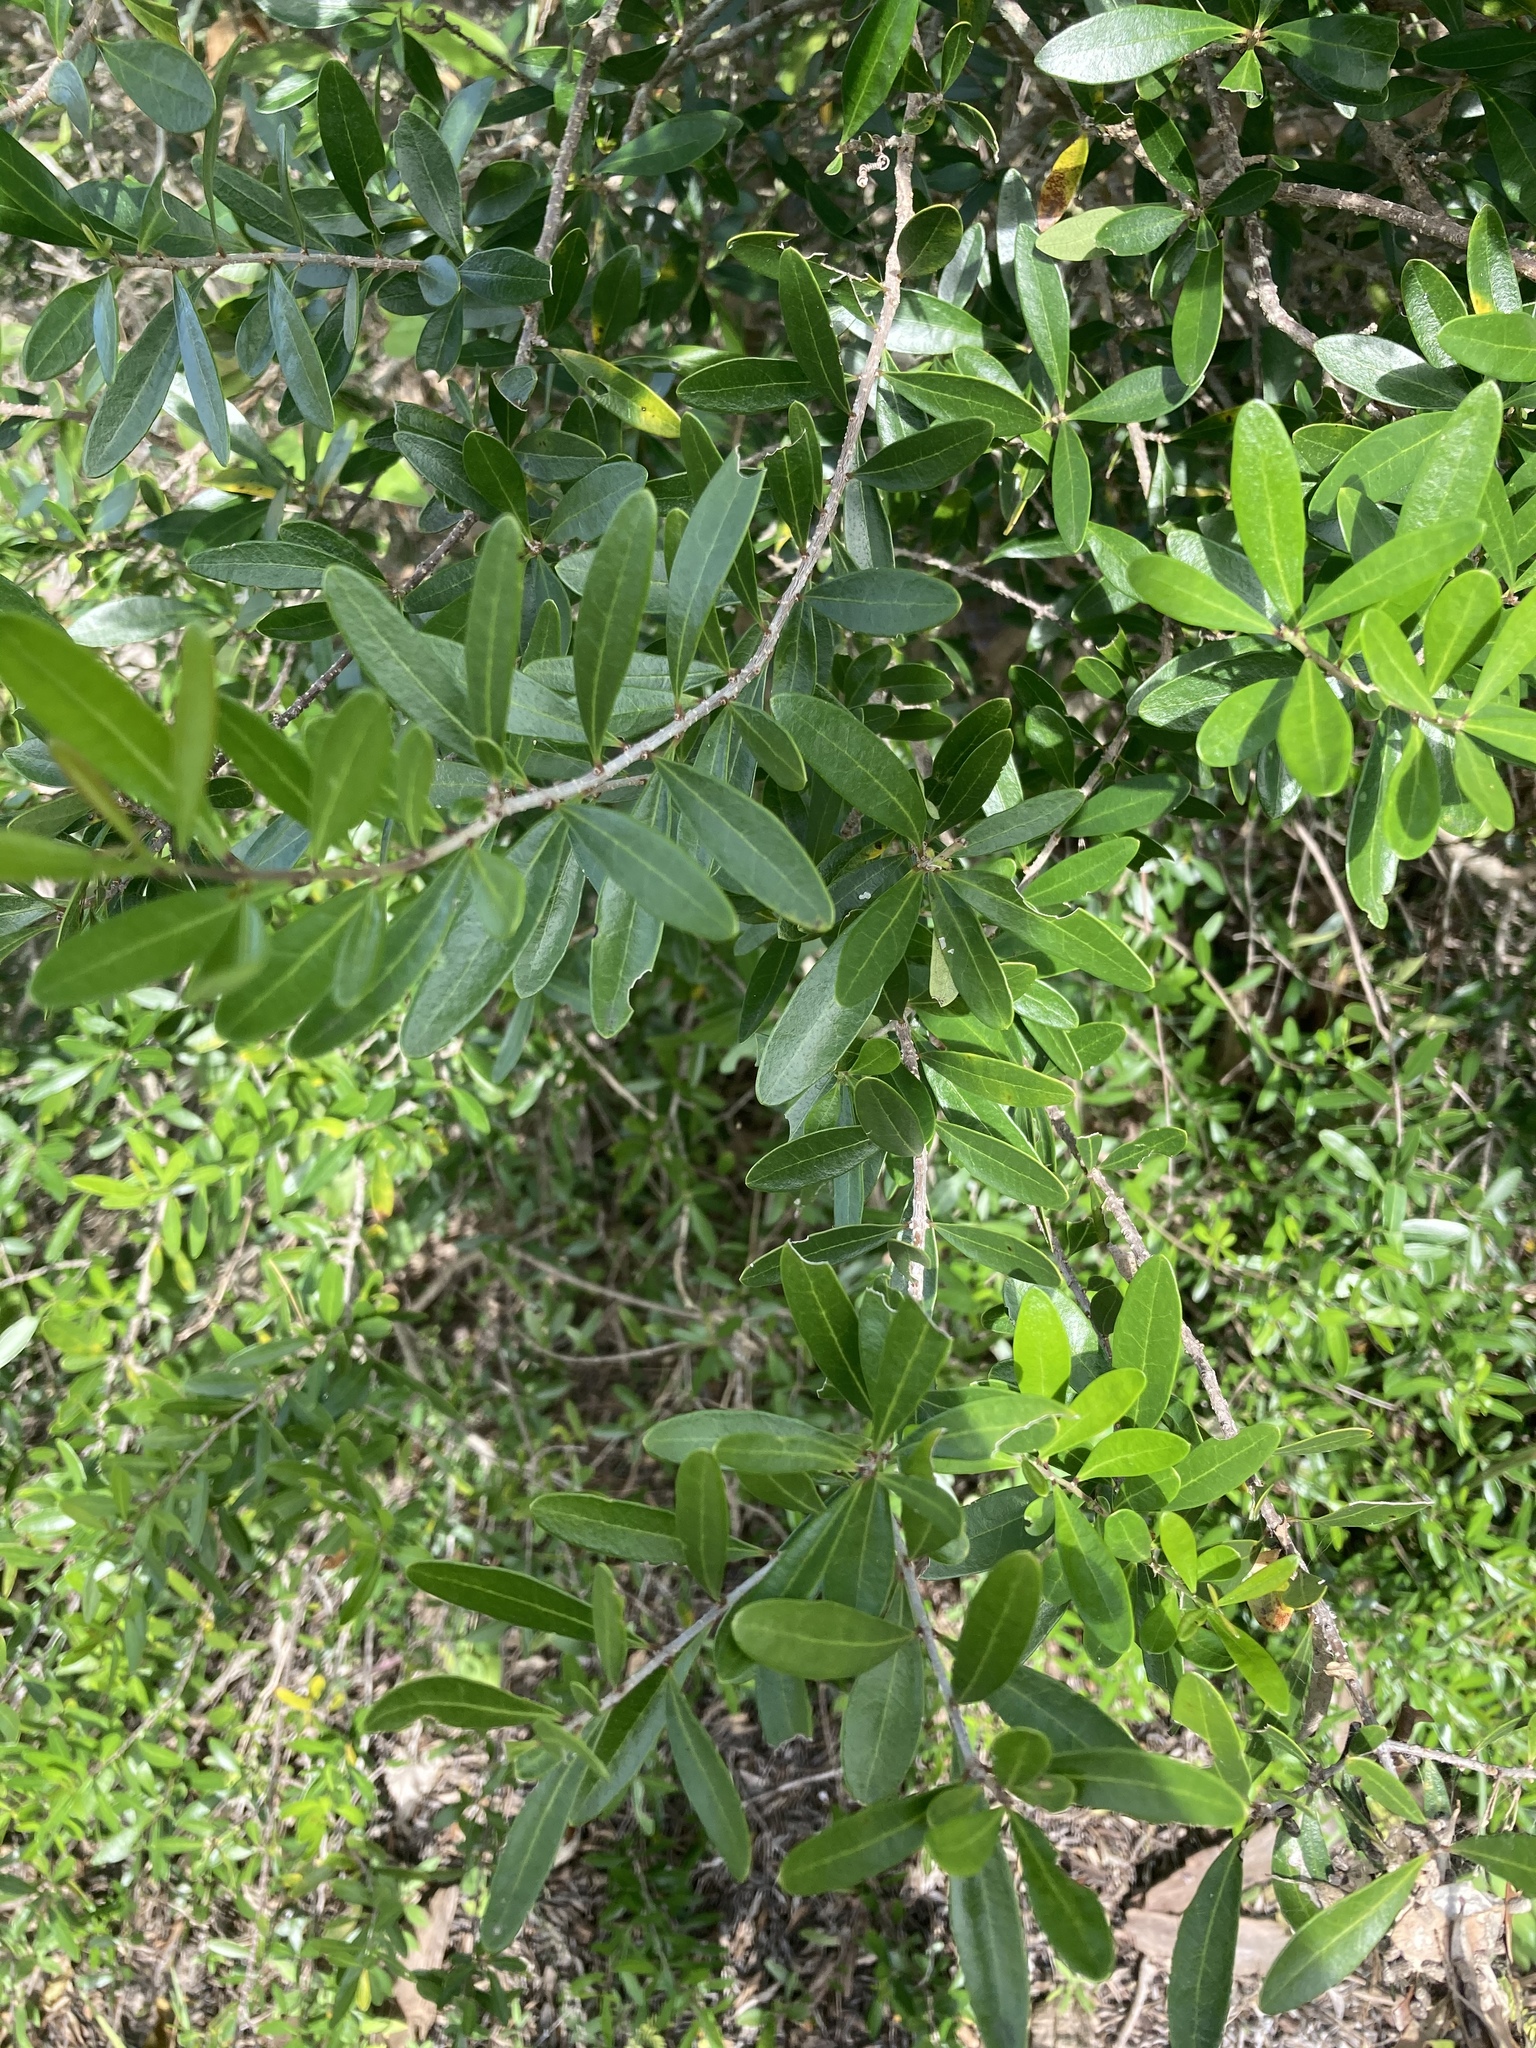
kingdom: Plantae
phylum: Tracheophyta
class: Magnoliopsida
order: Lamiales
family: Oleaceae
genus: Forestiera
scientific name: Forestiera segregata
